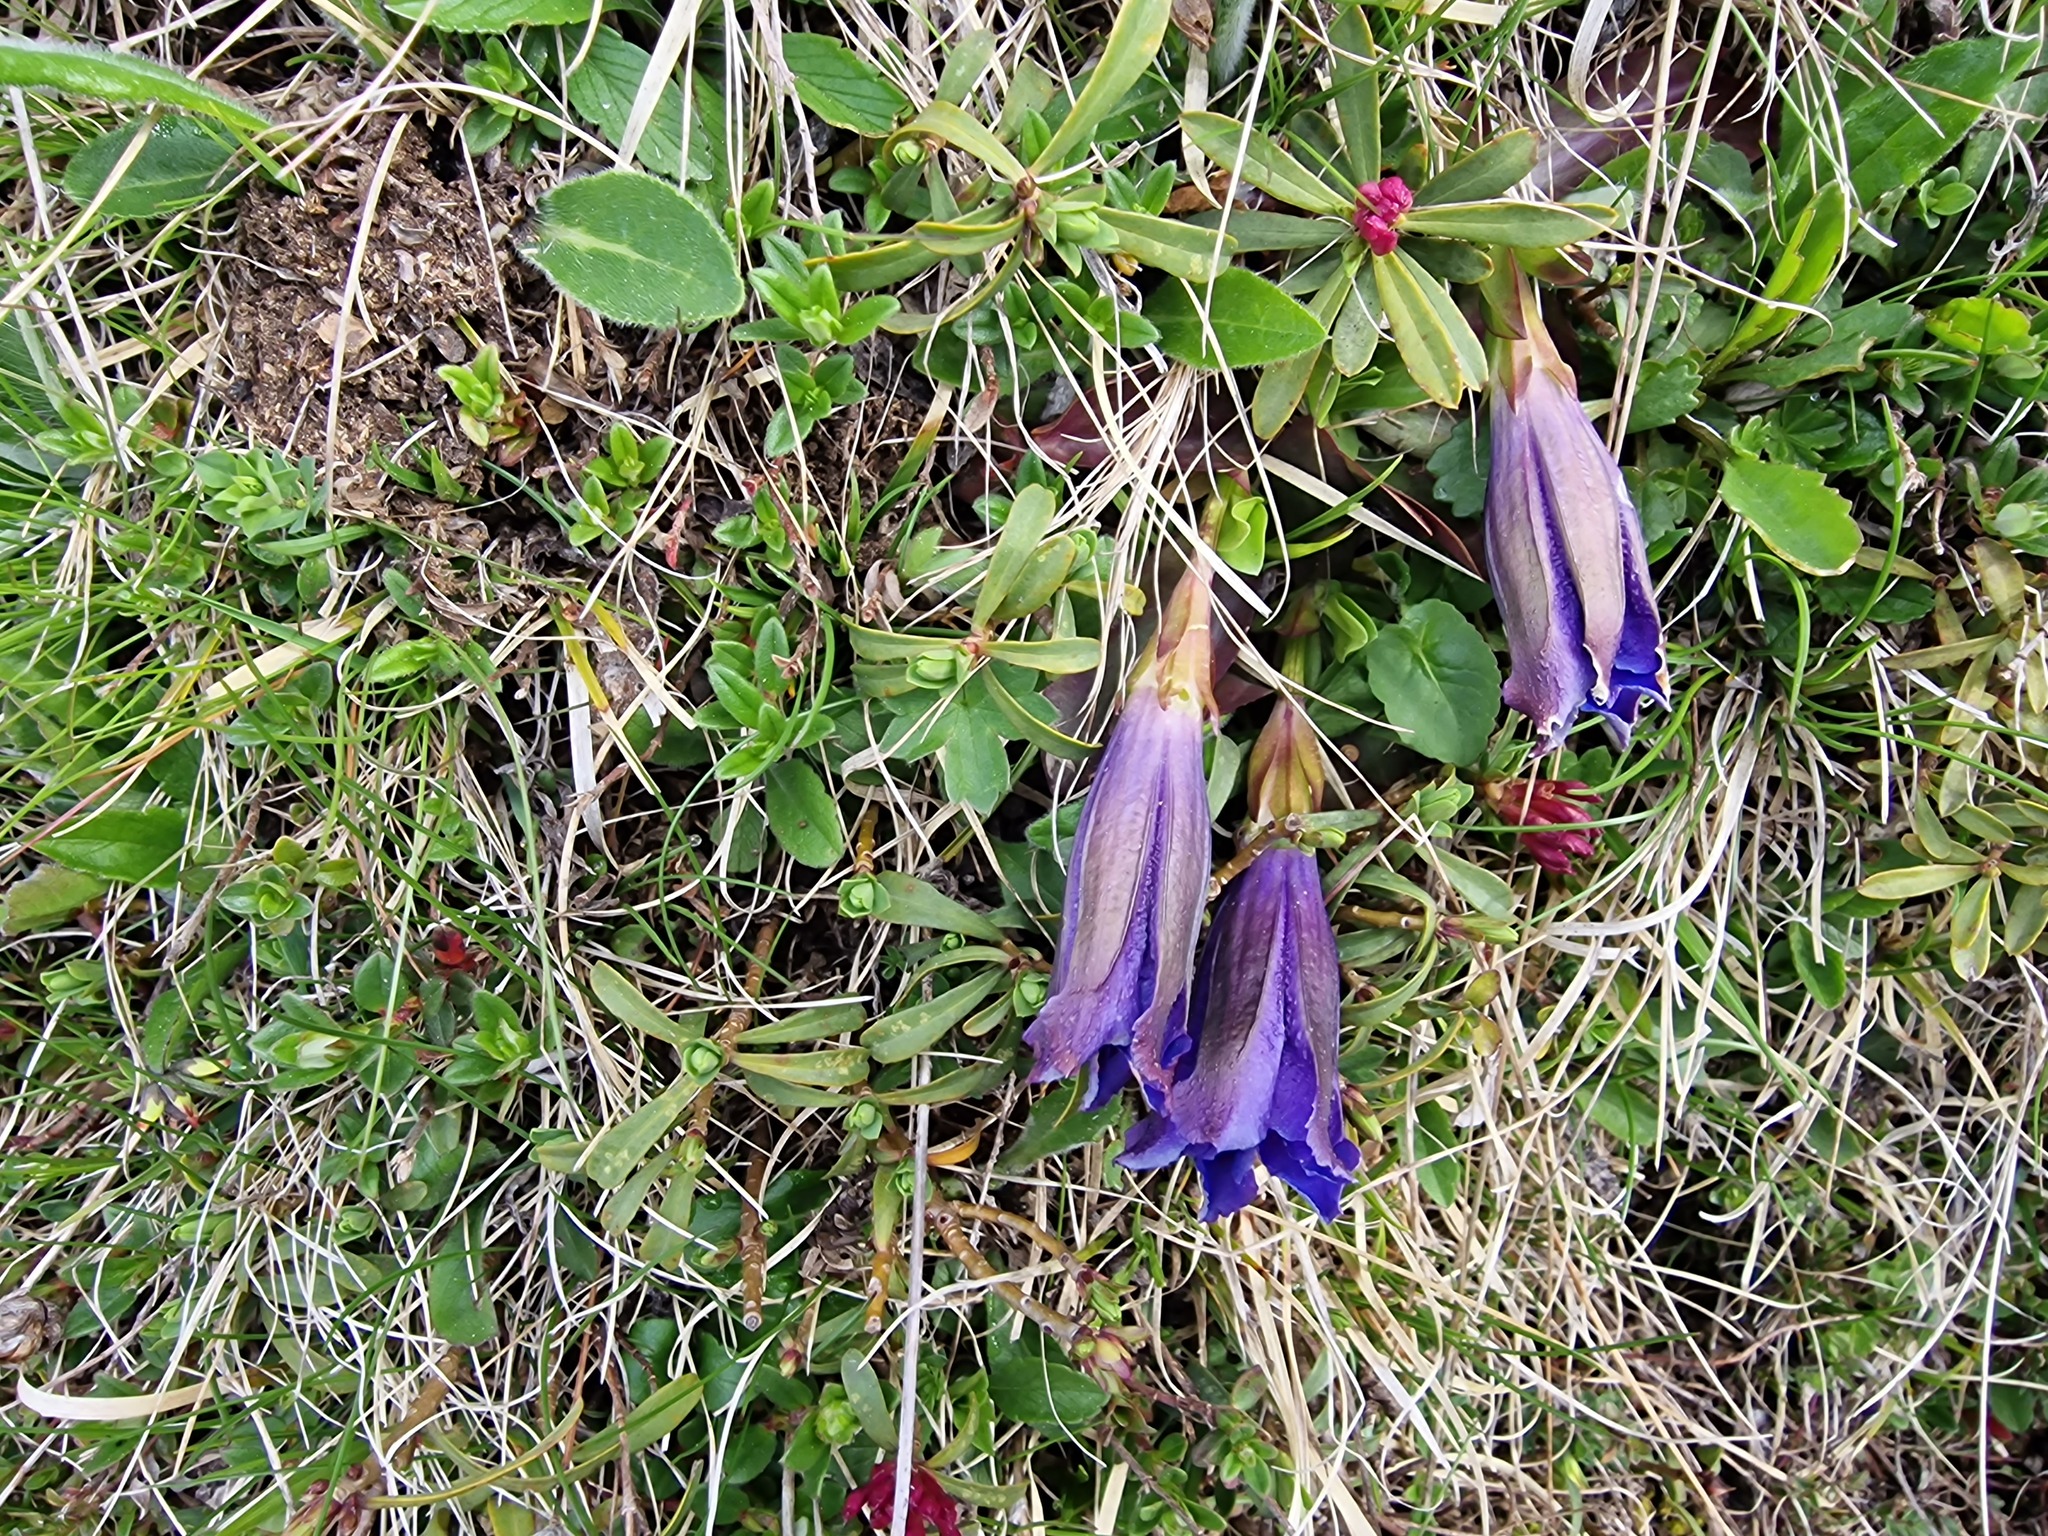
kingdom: Plantae
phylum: Tracheophyta
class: Magnoliopsida
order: Gentianales
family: Gentianaceae
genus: Gentiana
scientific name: Gentiana acaulis
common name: Trumpet gentian
